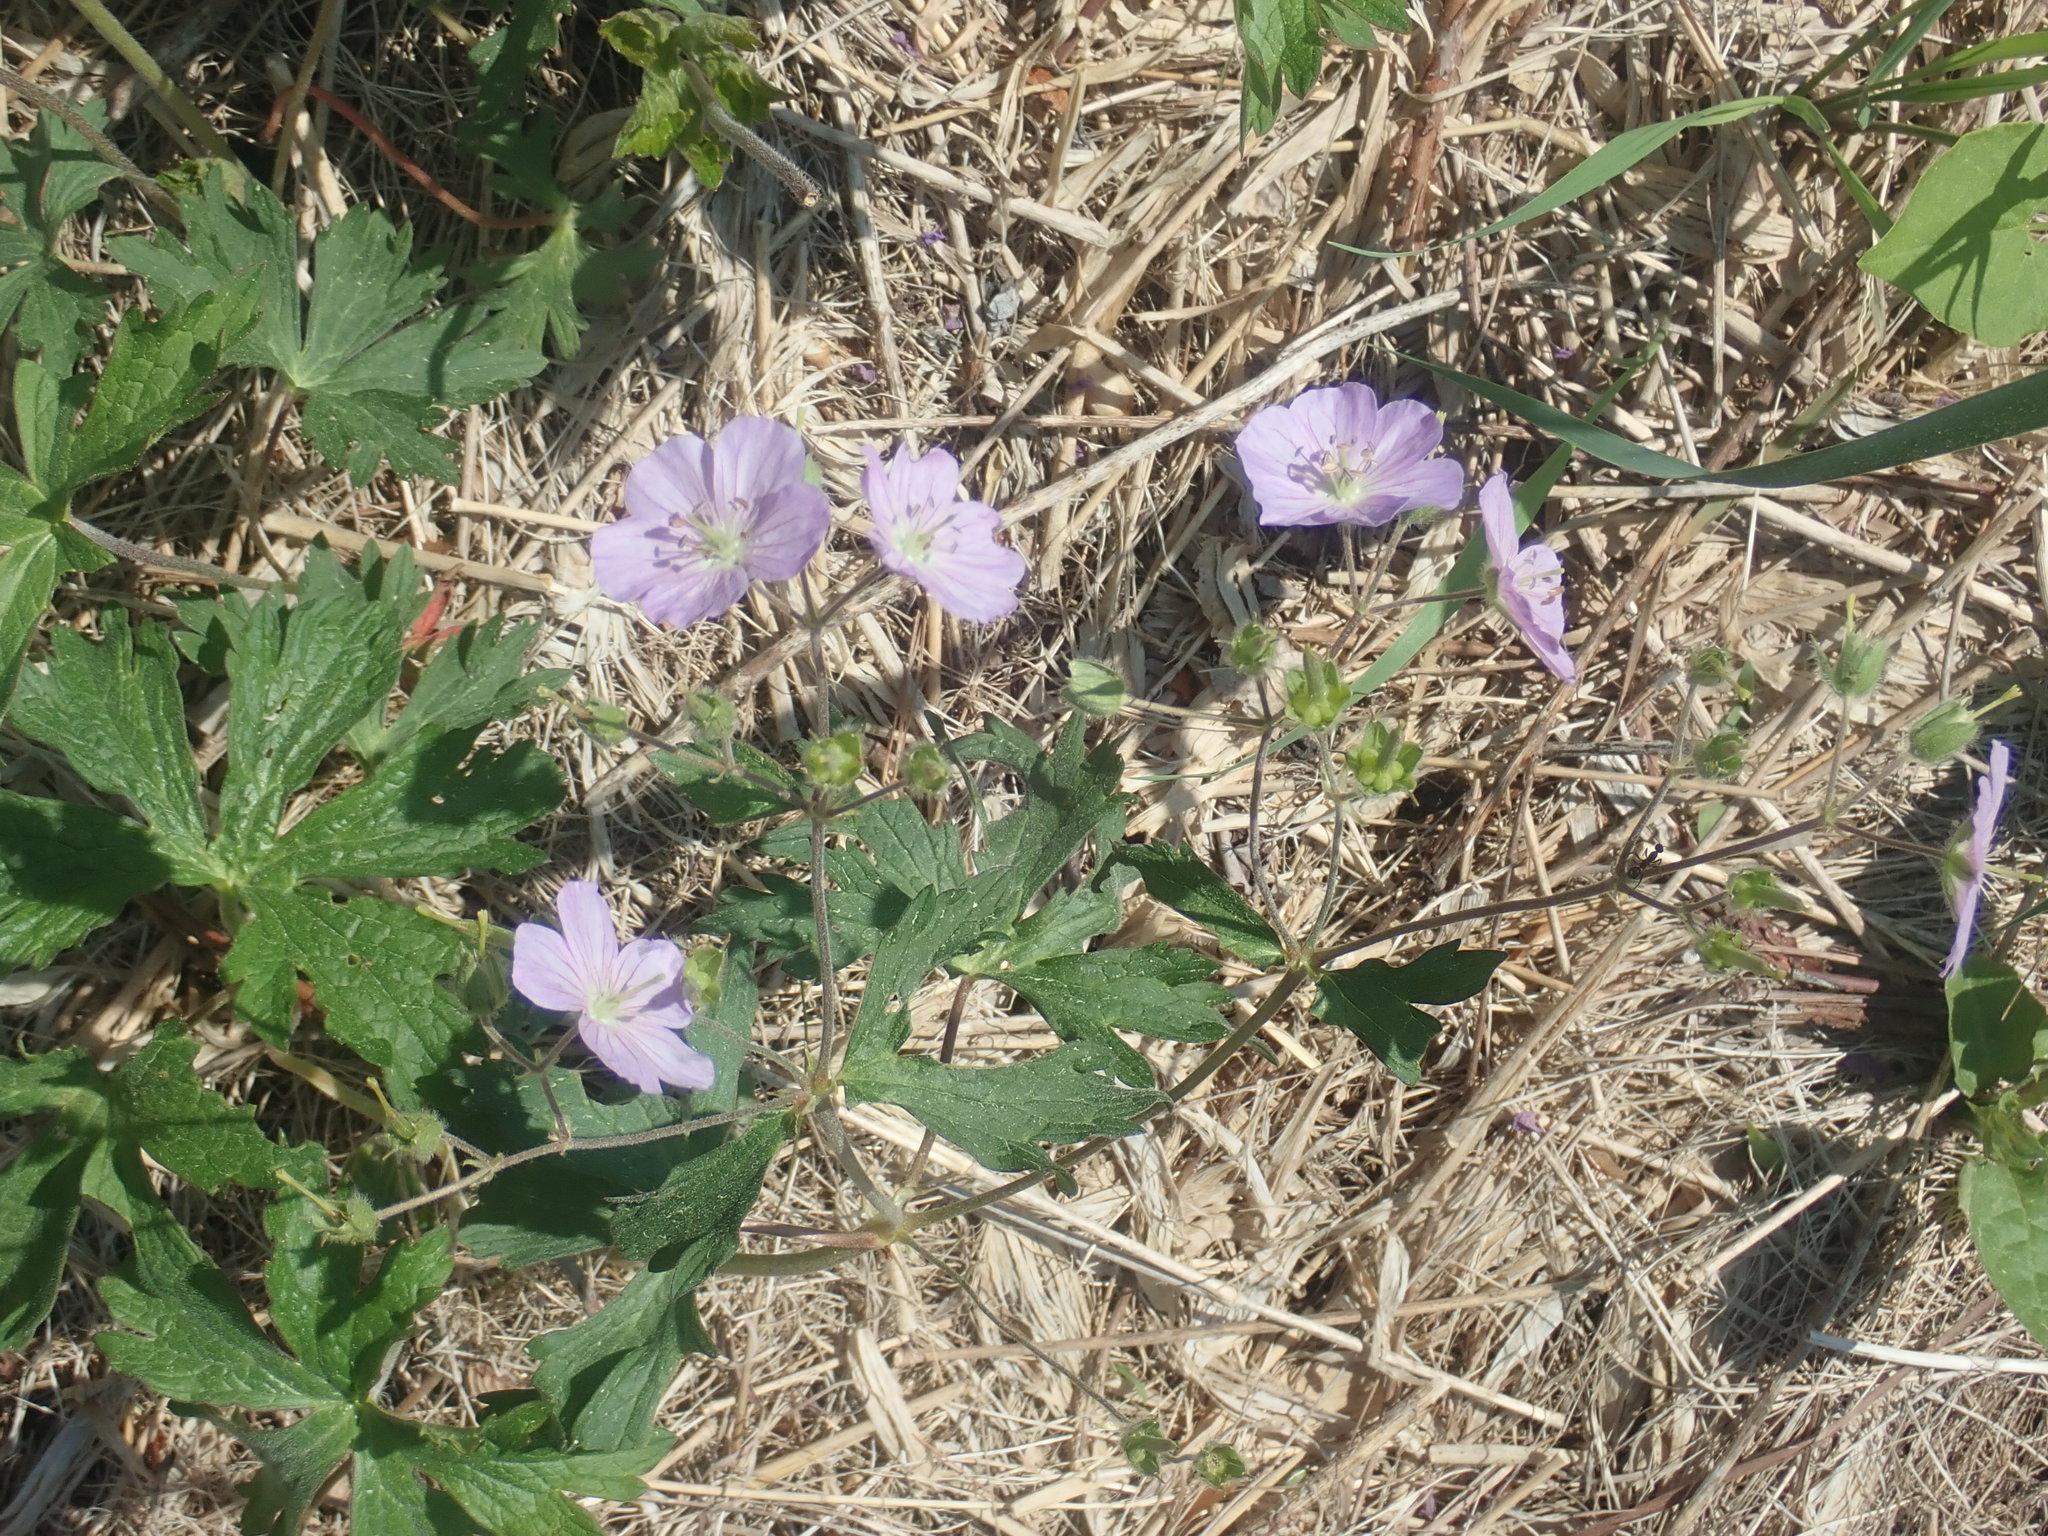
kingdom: Plantae
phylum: Tracheophyta
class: Magnoliopsida
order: Geraniales
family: Geraniaceae
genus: Geranium
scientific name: Geranium maculatum
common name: Spotted geranium
